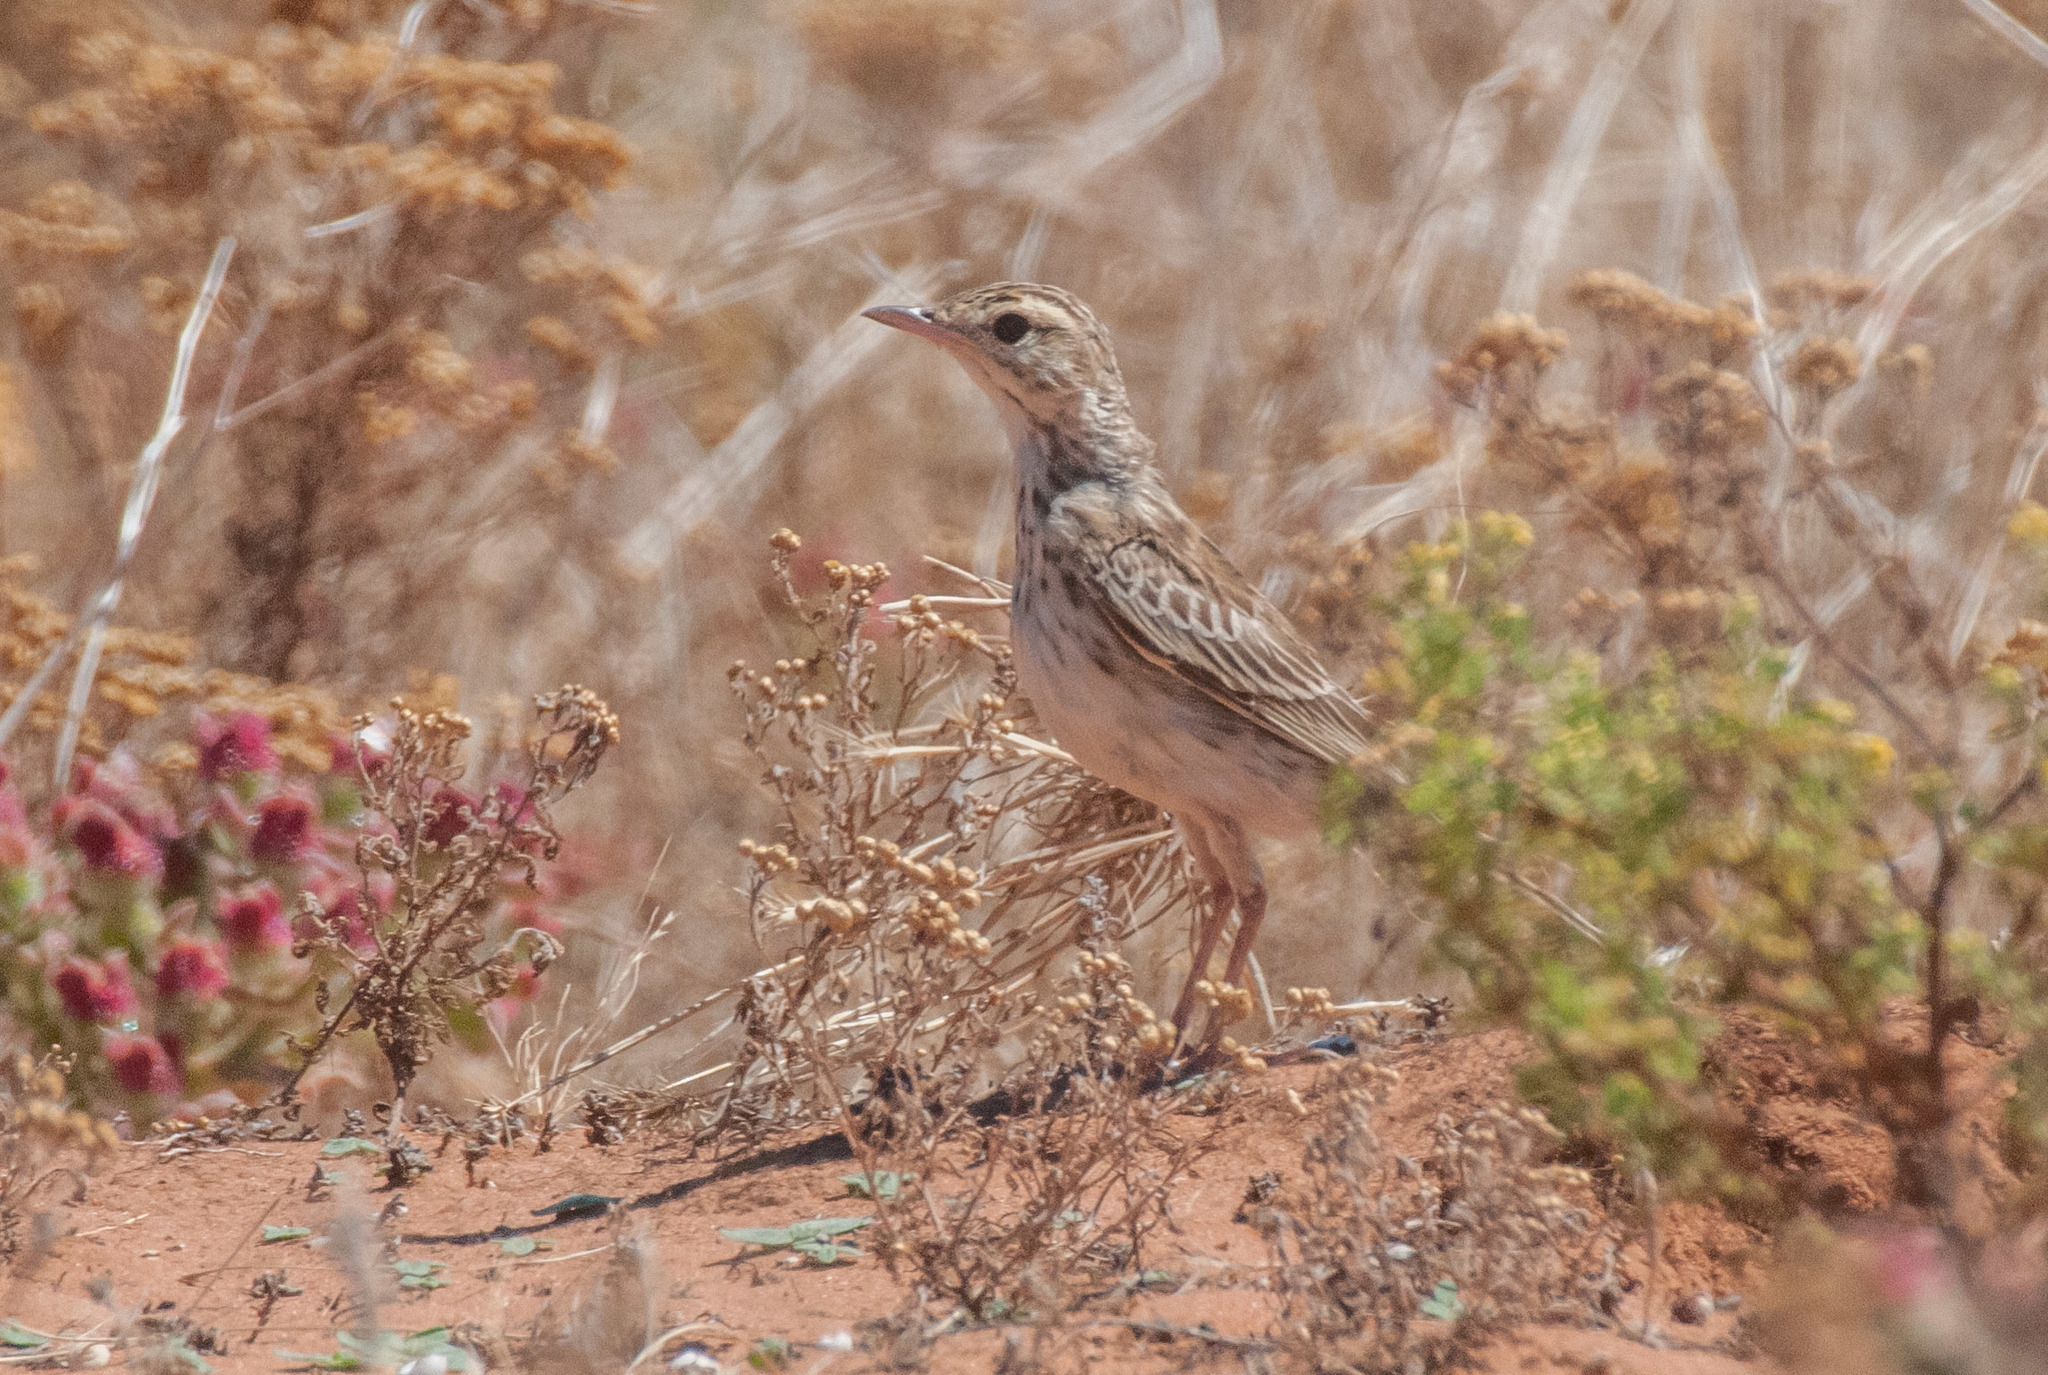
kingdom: Animalia
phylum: Chordata
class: Aves
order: Passeriformes
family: Motacillidae
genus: Anthus
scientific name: Anthus australis
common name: Australian pipit
